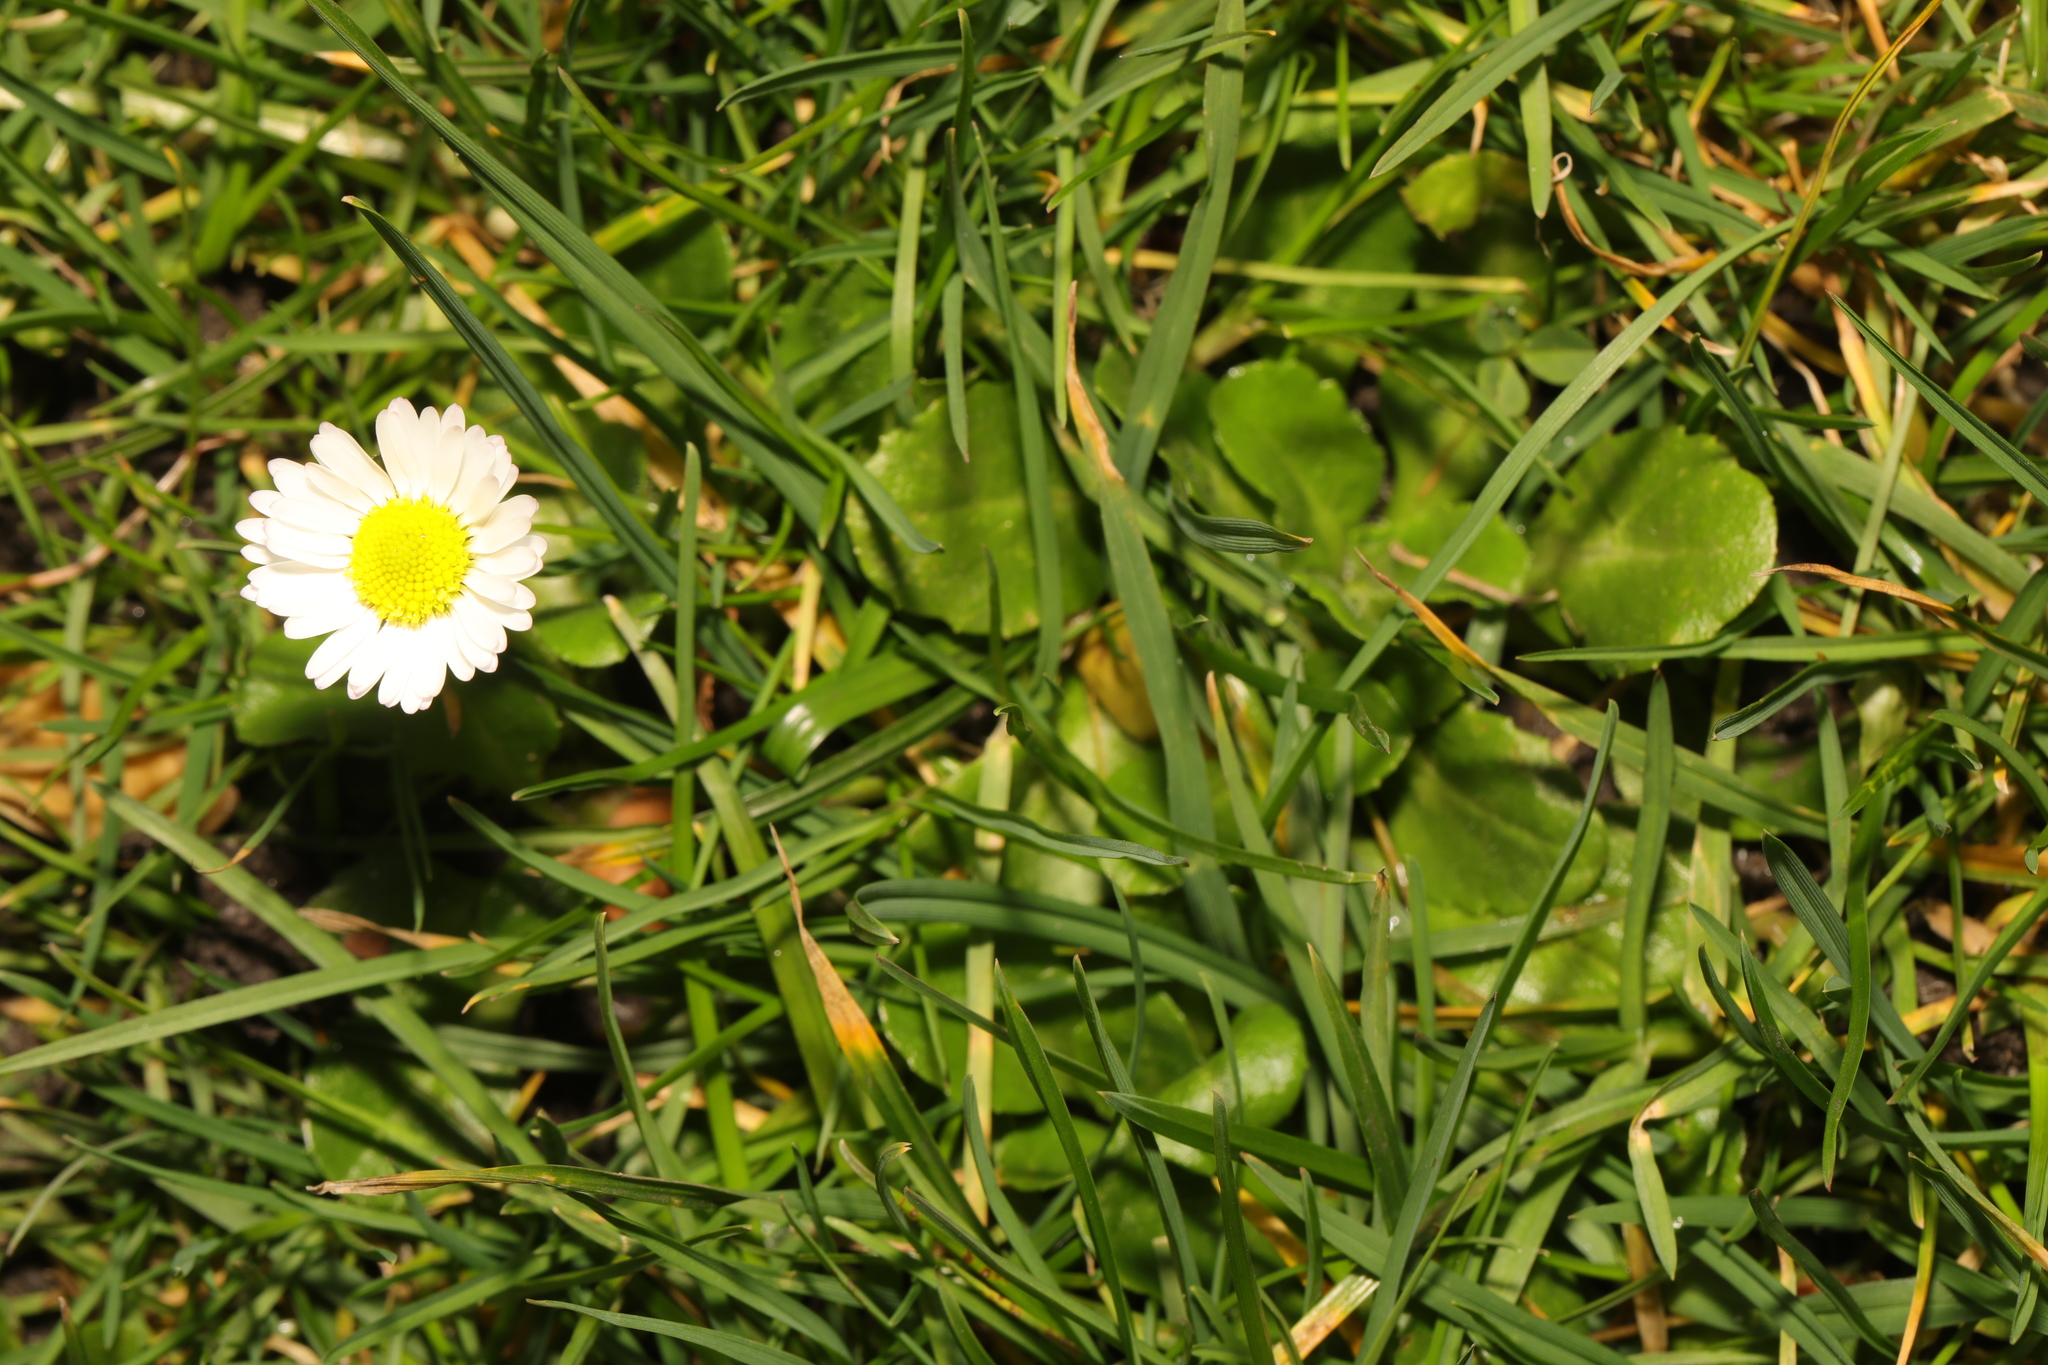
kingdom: Plantae
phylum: Tracheophyta
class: Magnoliopsida
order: Asterales
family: Asteraceae
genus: Bellis
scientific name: Bellis perennis
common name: Lawndaisy
